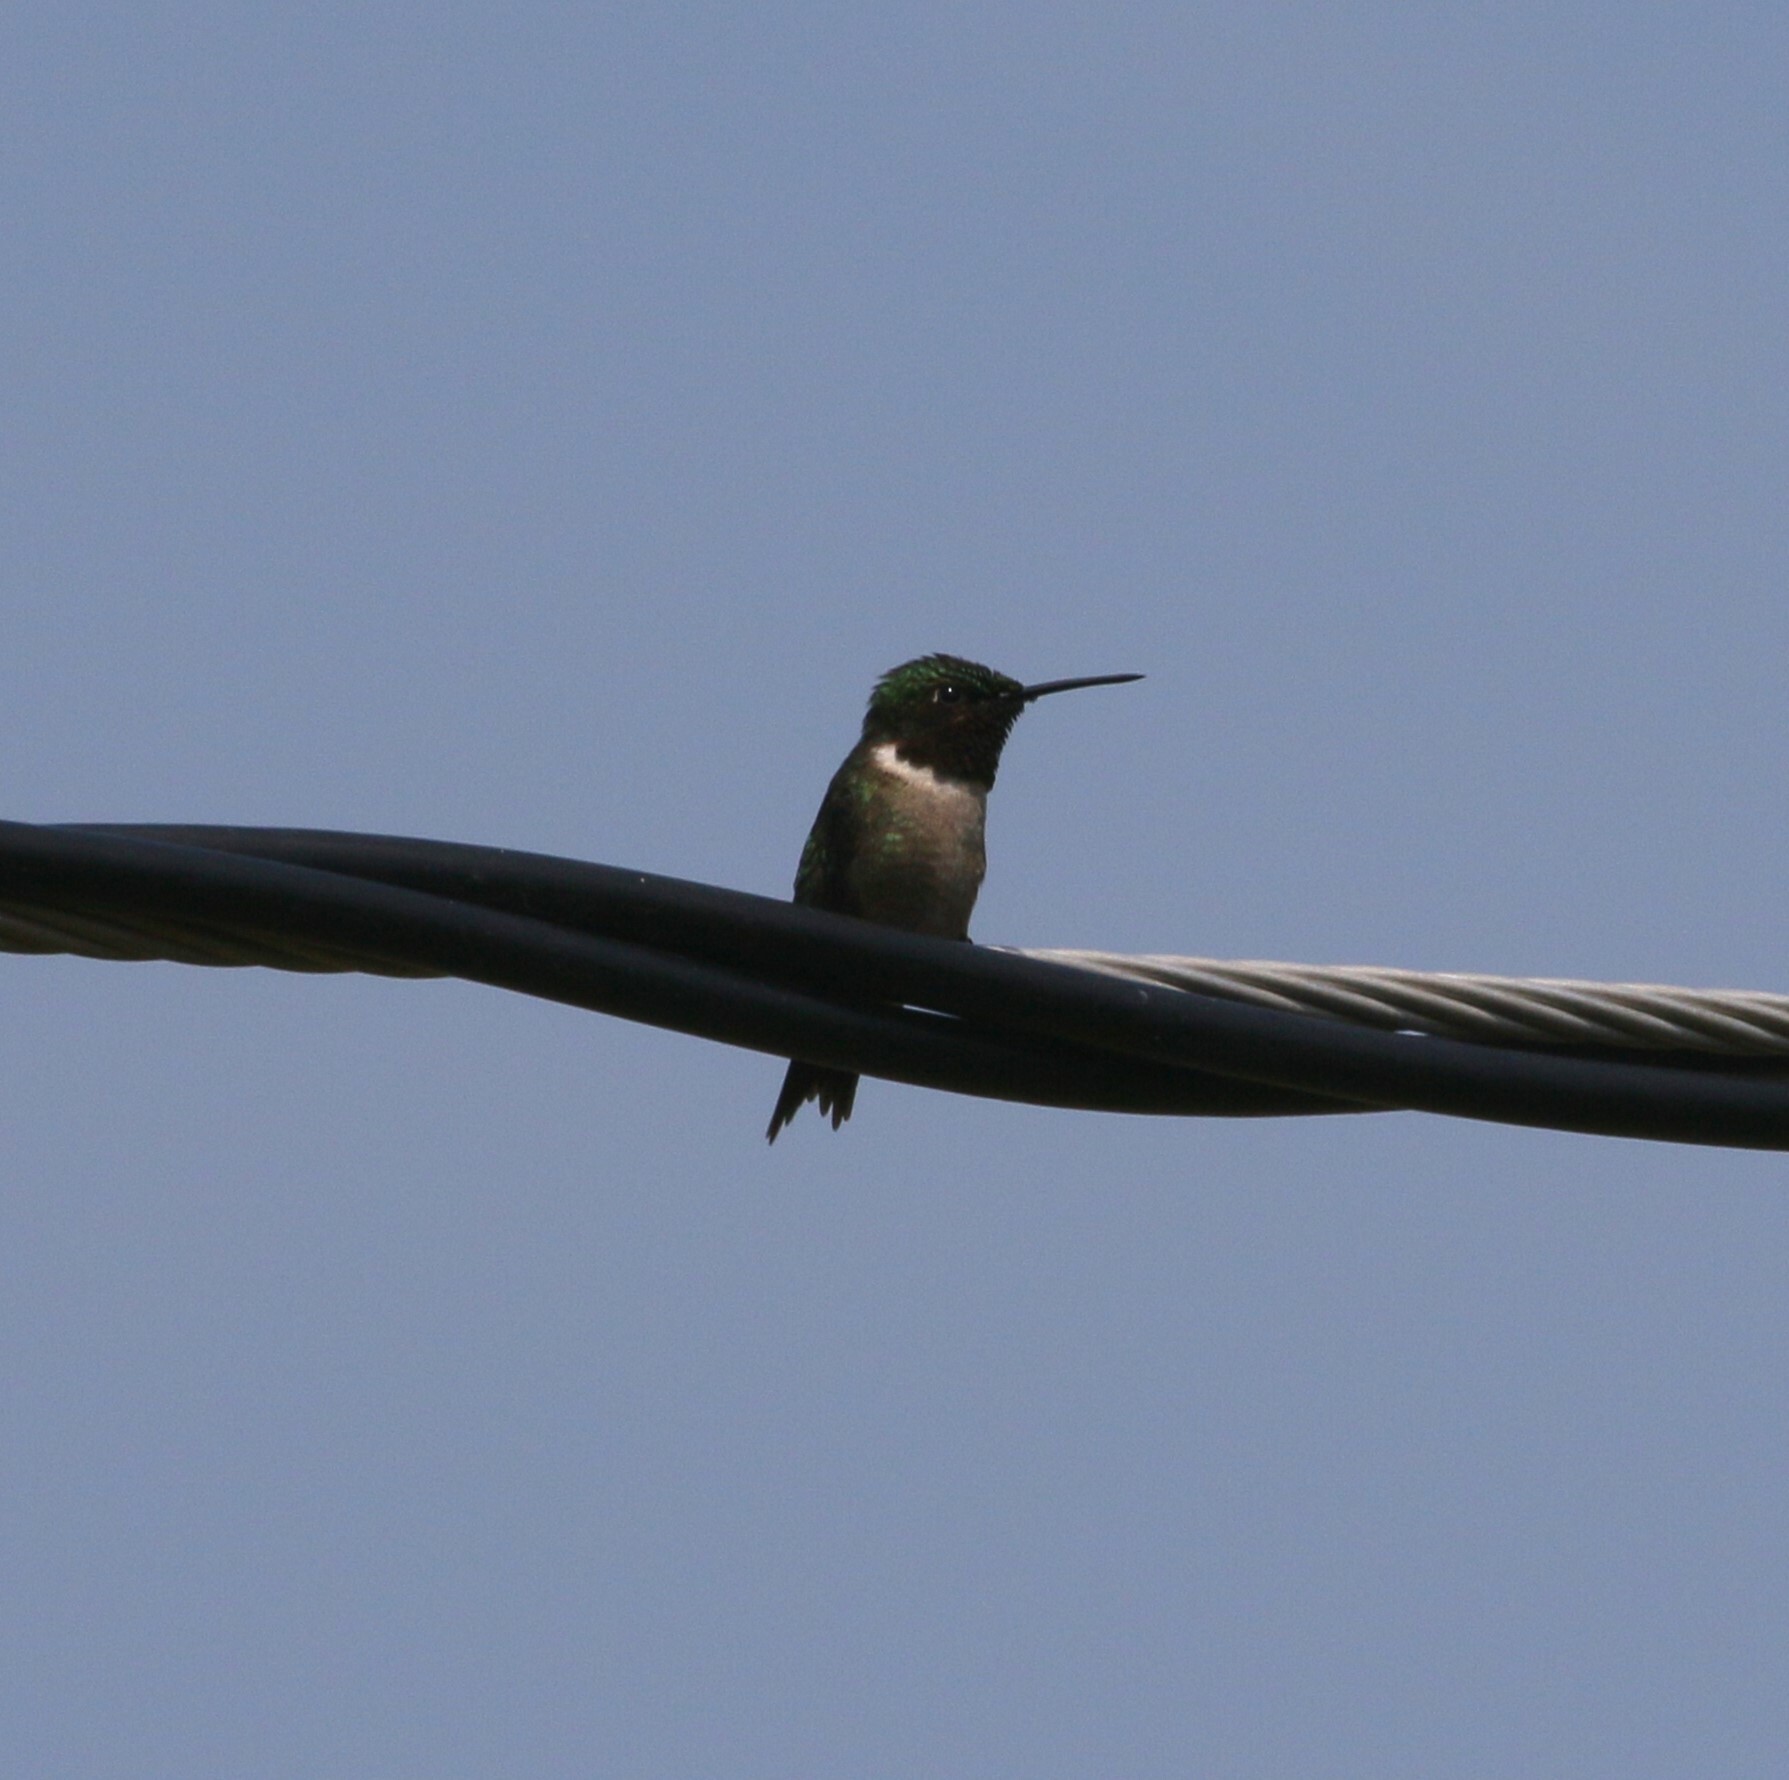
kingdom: Animalia
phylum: Chordata
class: Aves
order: Apodiformes
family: Trochilidae
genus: Archilochus
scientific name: Archilochus colubris
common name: Ruby-throated hummingbird
